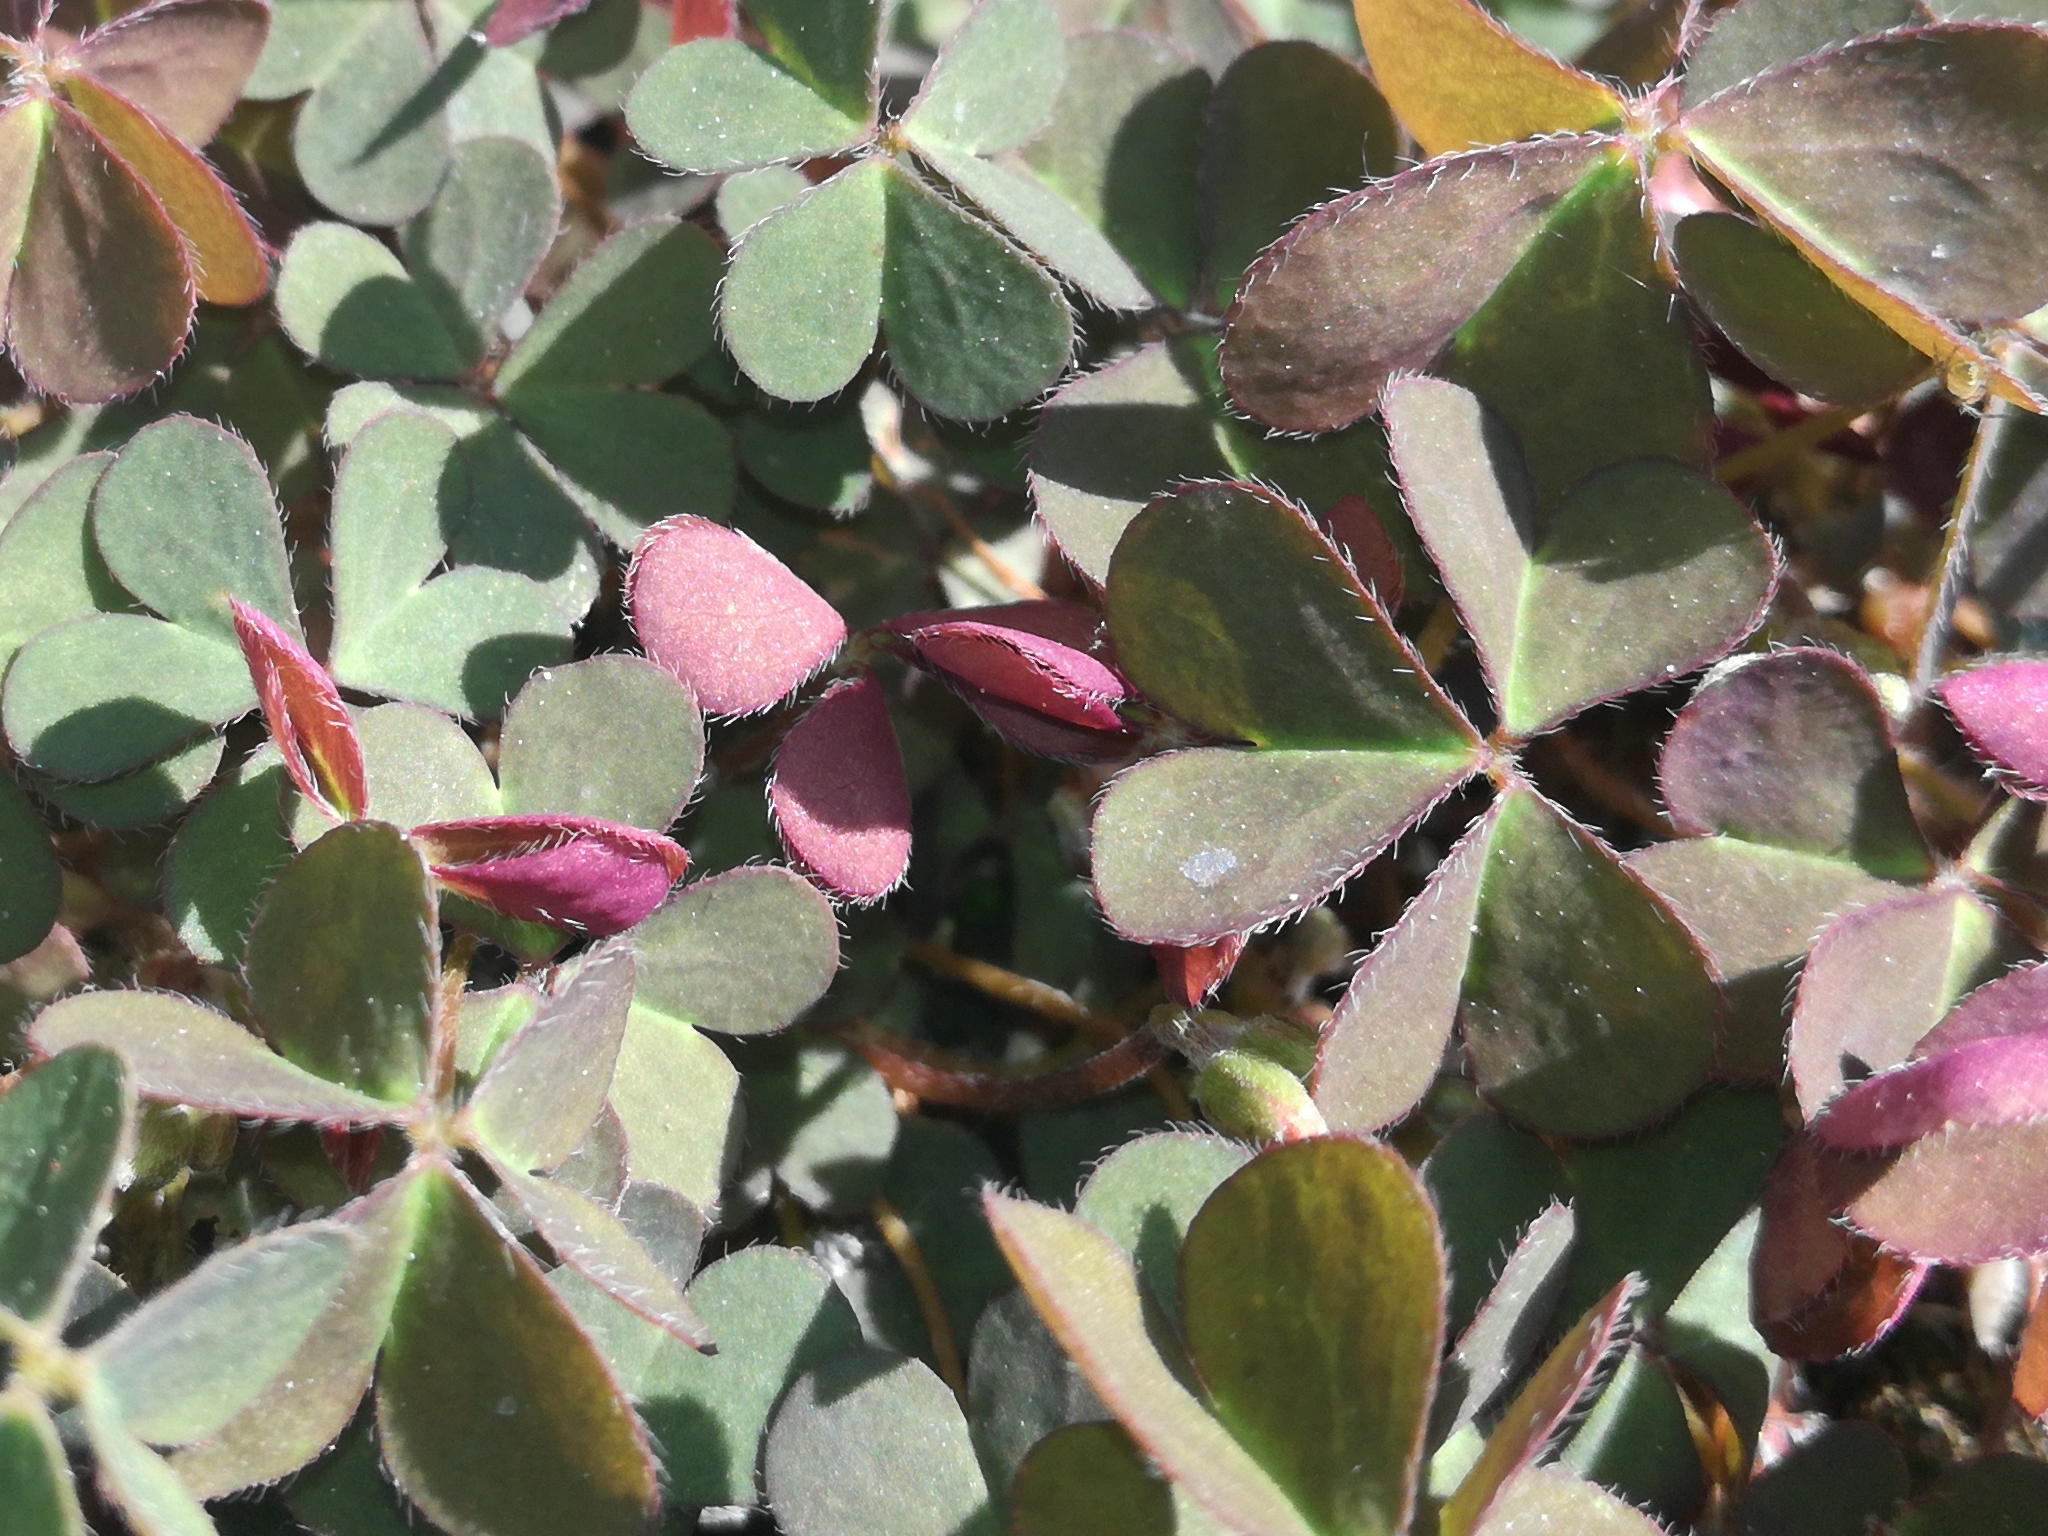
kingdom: Plantae
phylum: Tracheophyta
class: Magnoliopsida
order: Oxalidales
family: Oxalidaceae
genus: Oxalis
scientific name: Oxalis corniculata
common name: Procumbent yellow-sorrel
